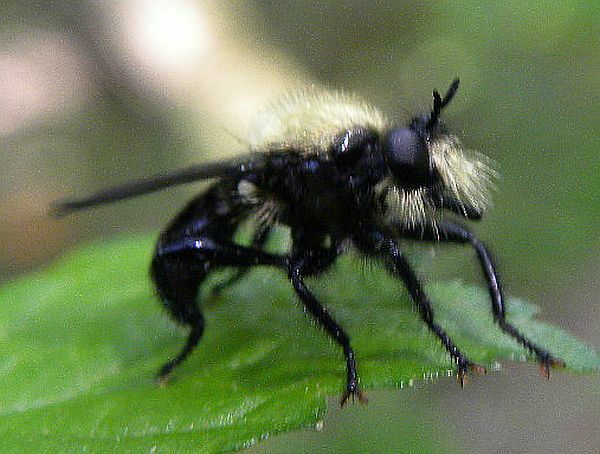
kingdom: Animalia
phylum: Arthropoda
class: Insecta
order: Diptera
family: Asilidae
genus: Laphria
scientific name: Laphria flavicollis
